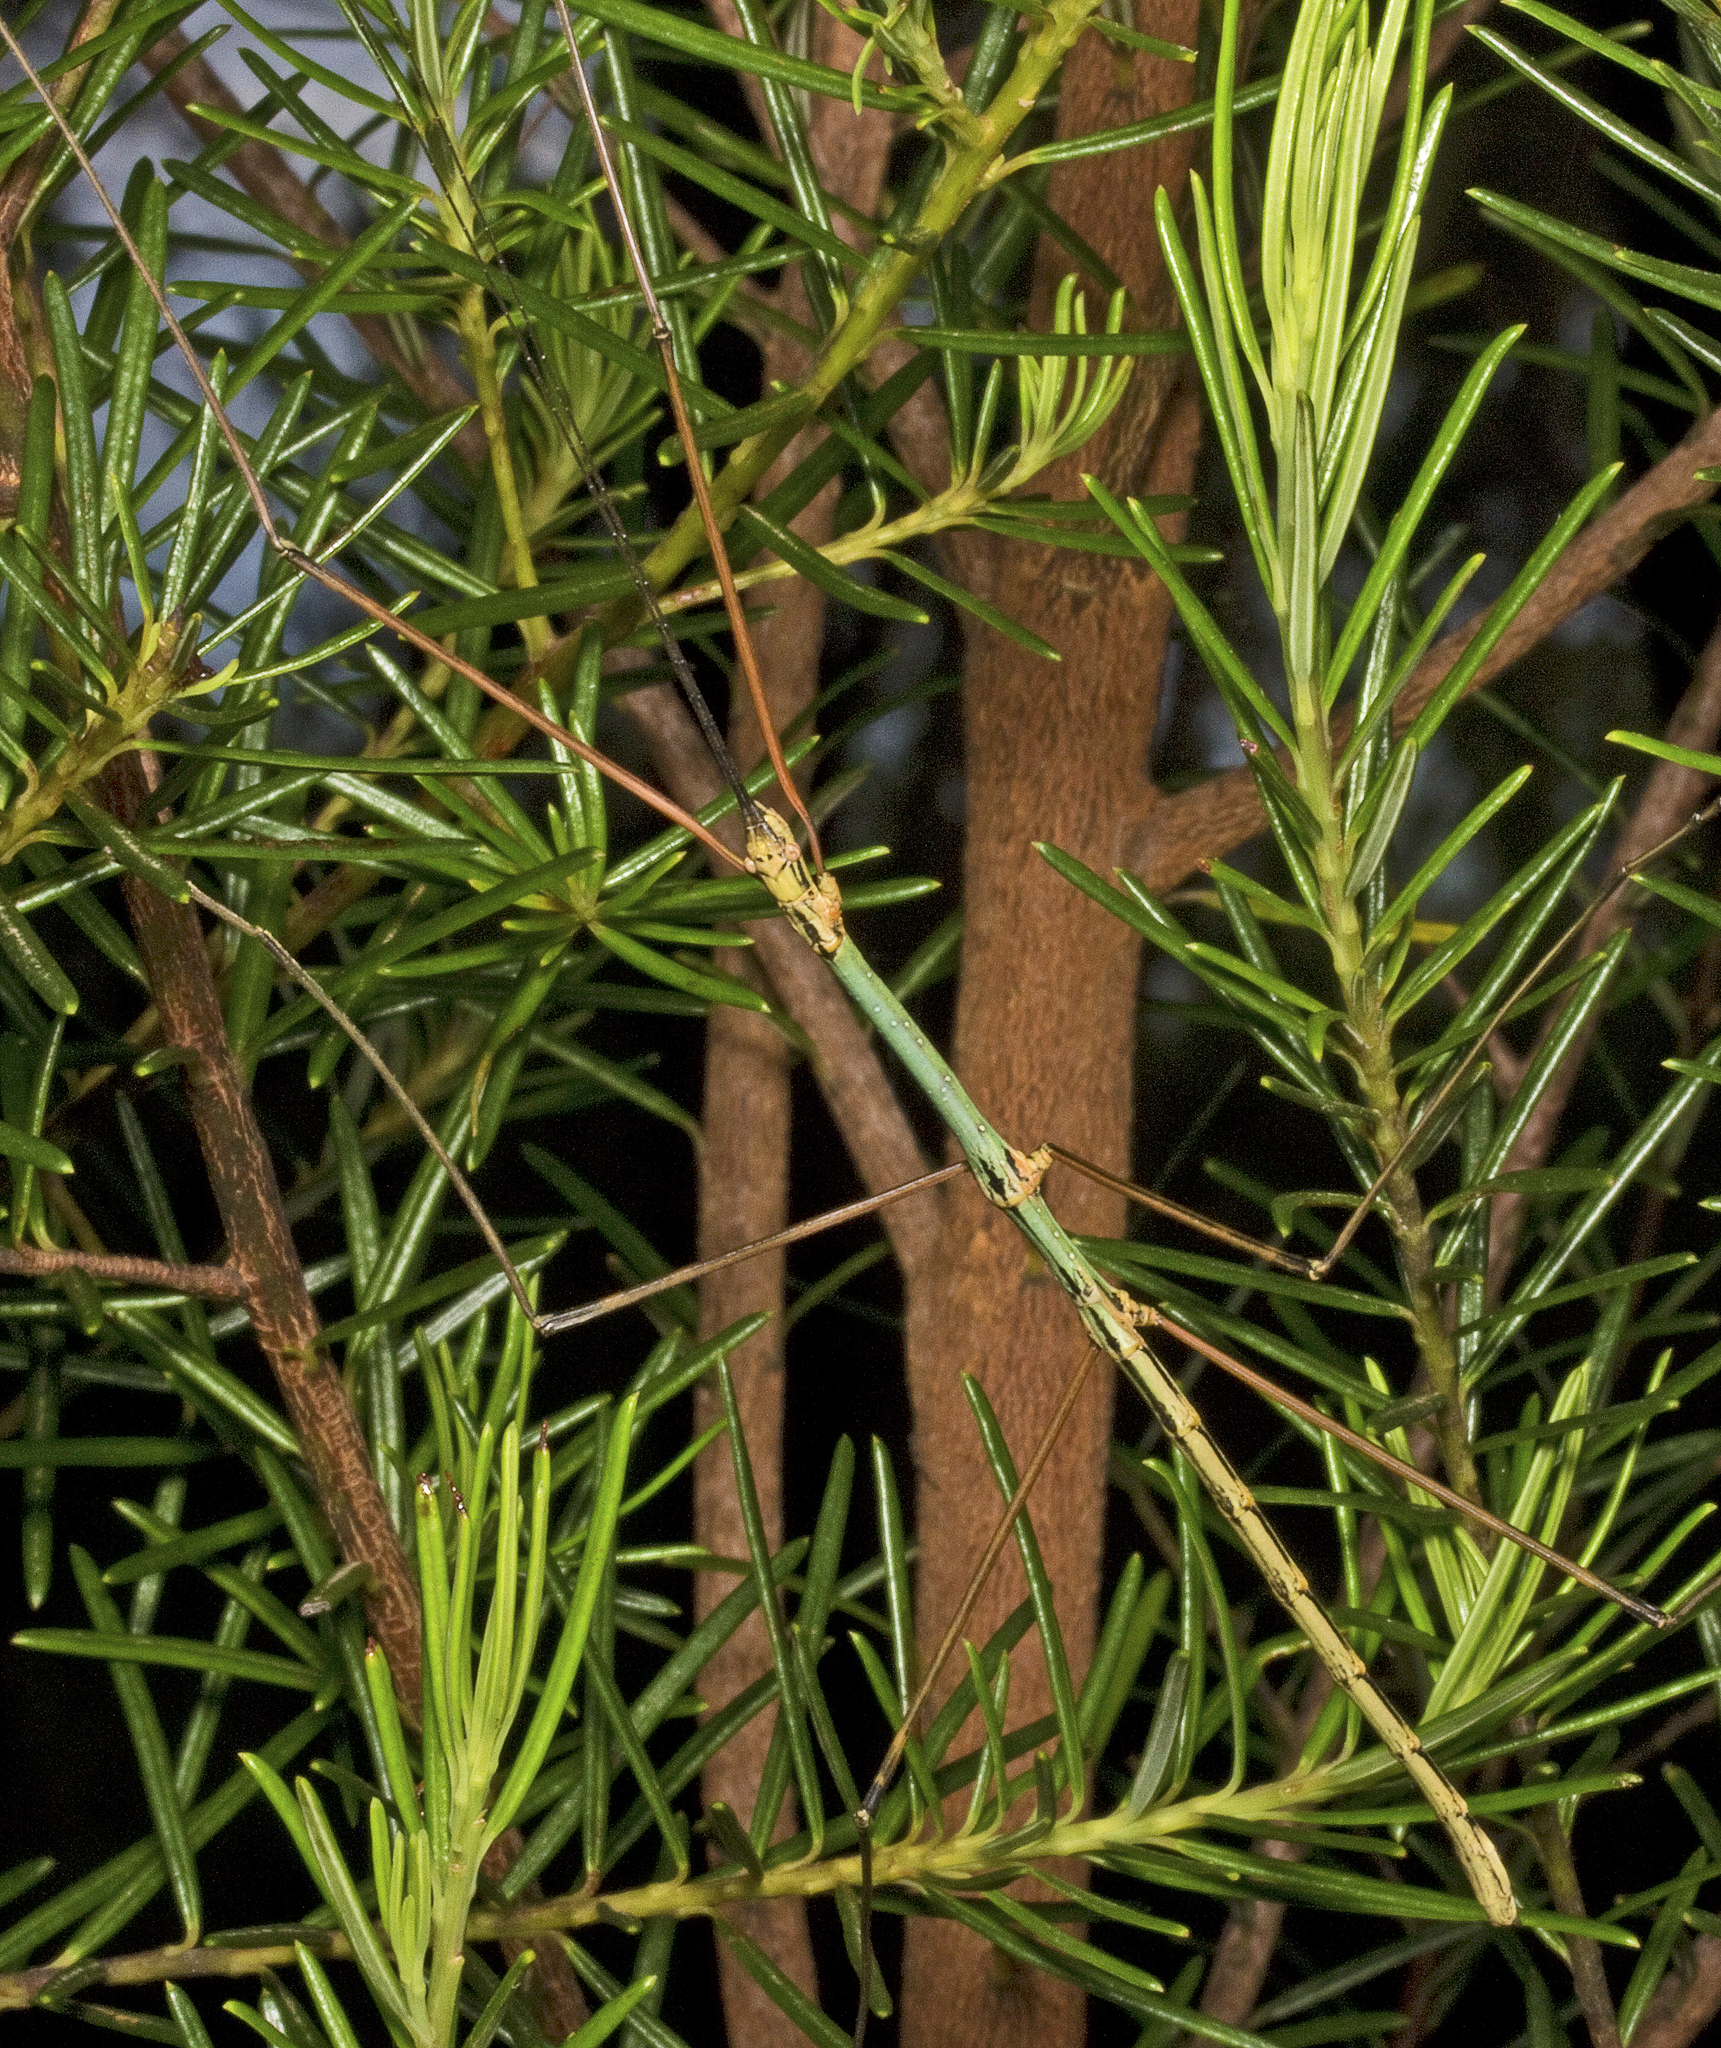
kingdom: Animalia
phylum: Arthropoda
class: Insecta
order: Phasmida
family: Lonchodidae
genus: Candovia
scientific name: Candovia aberrata
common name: Aberrant stick-insect
